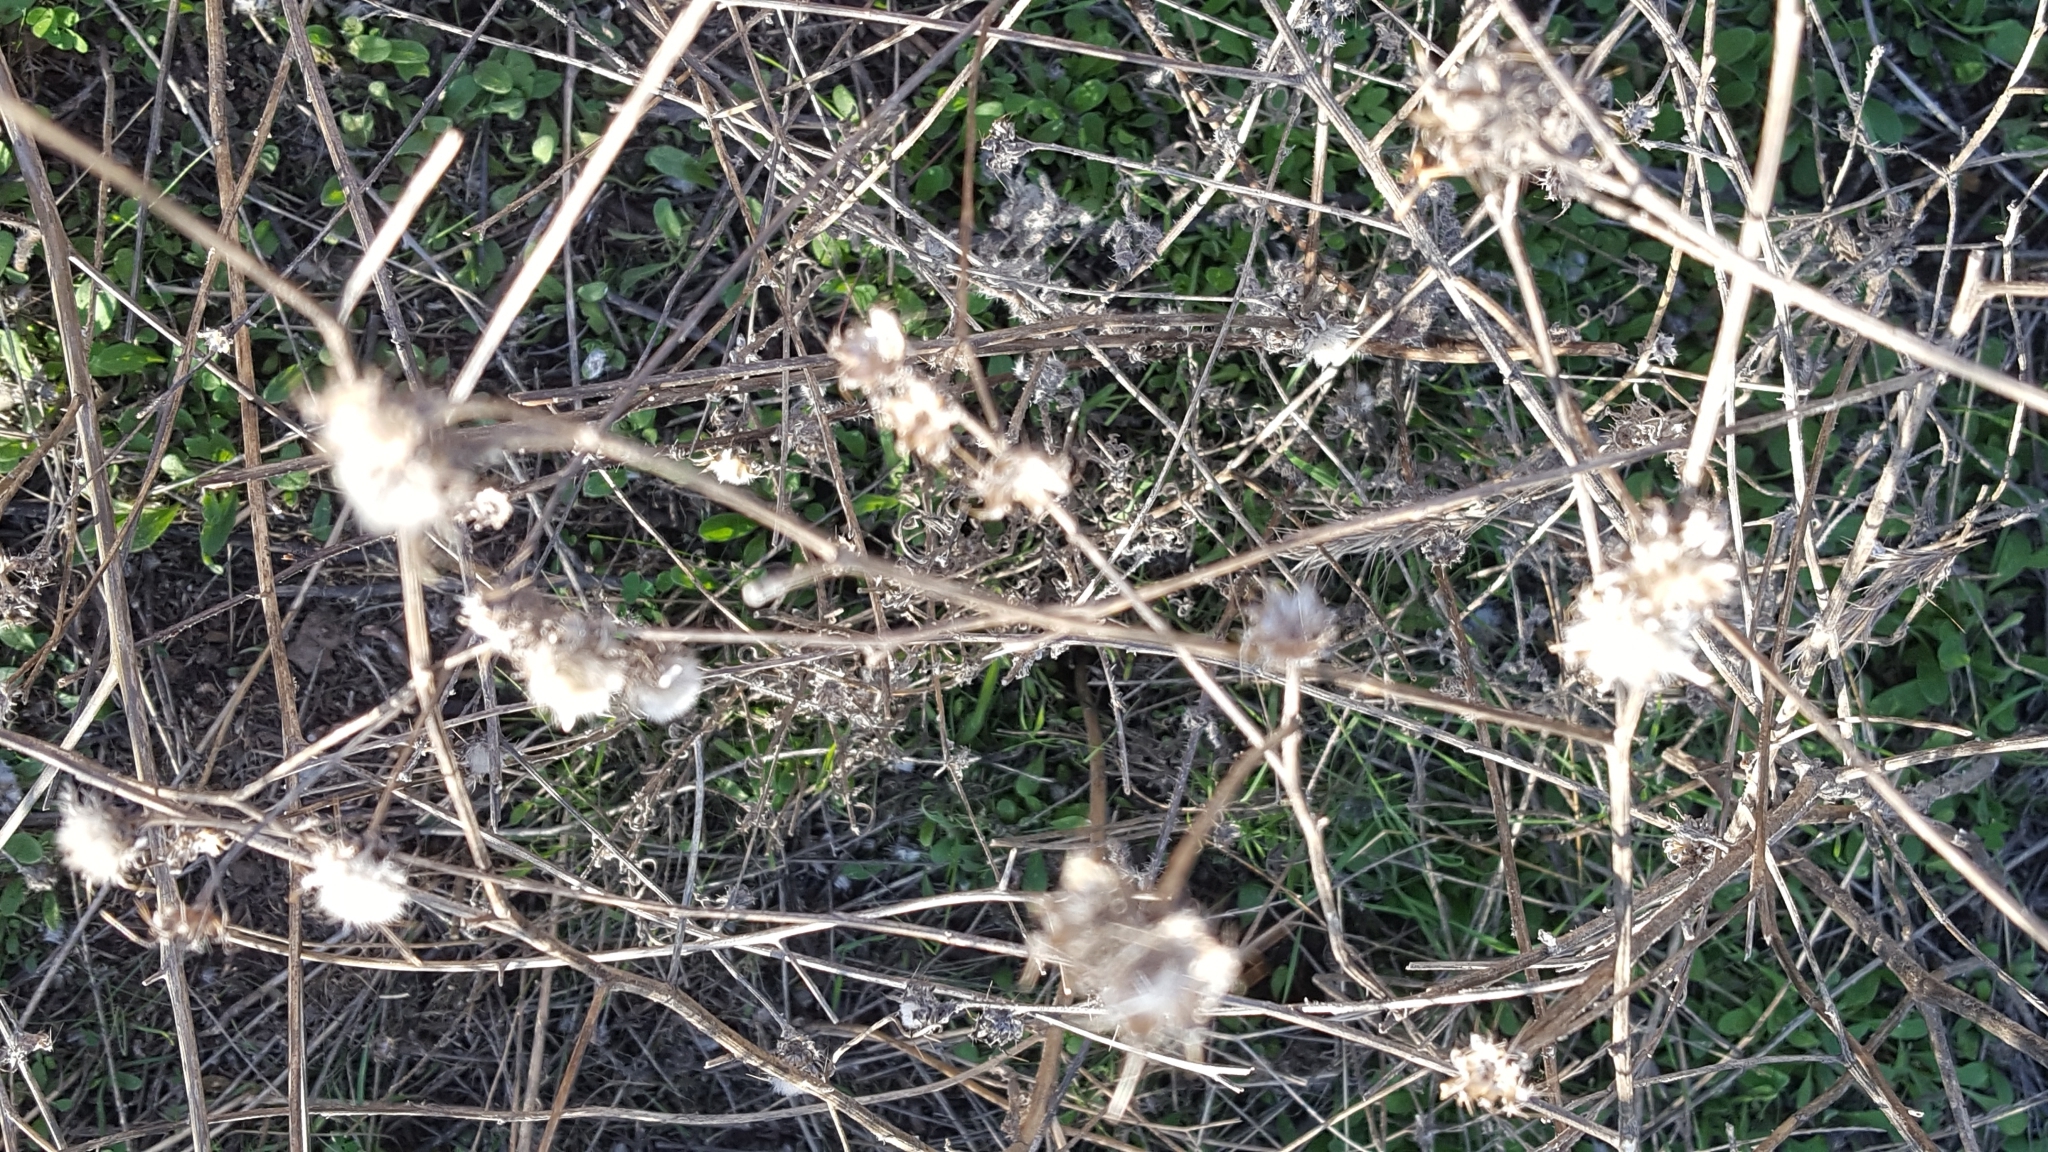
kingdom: Plantae
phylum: Tracheophyta
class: Magnoliopsida
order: Asterales
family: Asteraceae
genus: Centaurea
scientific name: Centaurea melitensis
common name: Maltese star-thistle
